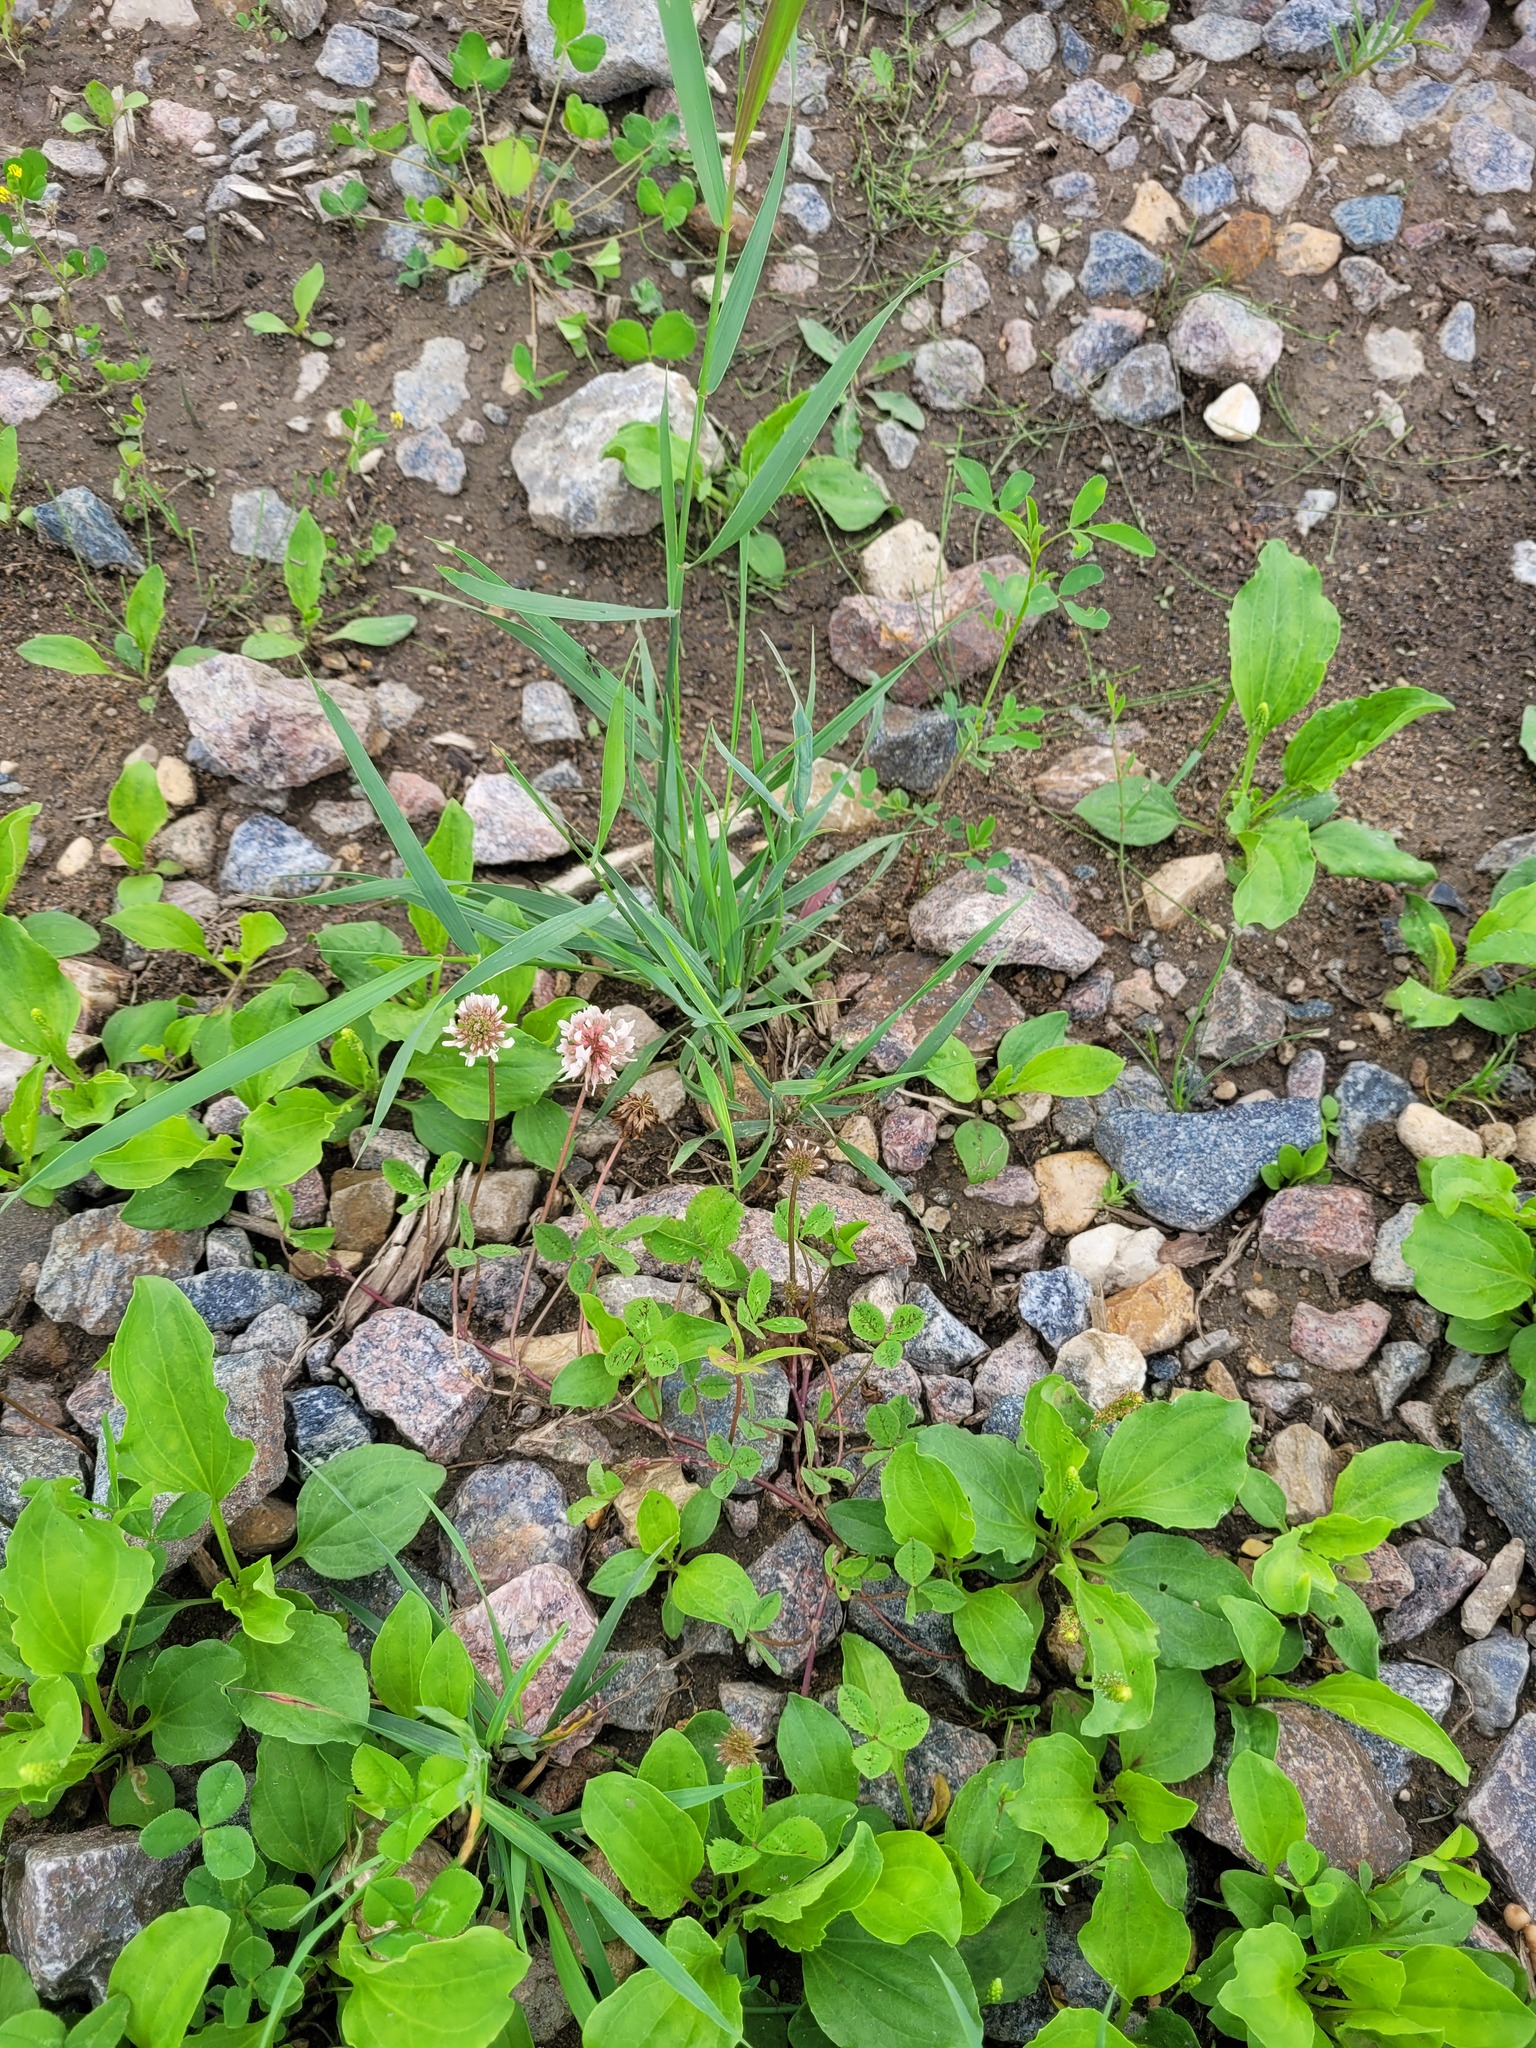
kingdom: Plantae
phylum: Tracheophyta
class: Magnoliopsida
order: Fabales
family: Fabaceae
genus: Trifolium
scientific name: Trifolium repens
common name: White clover
